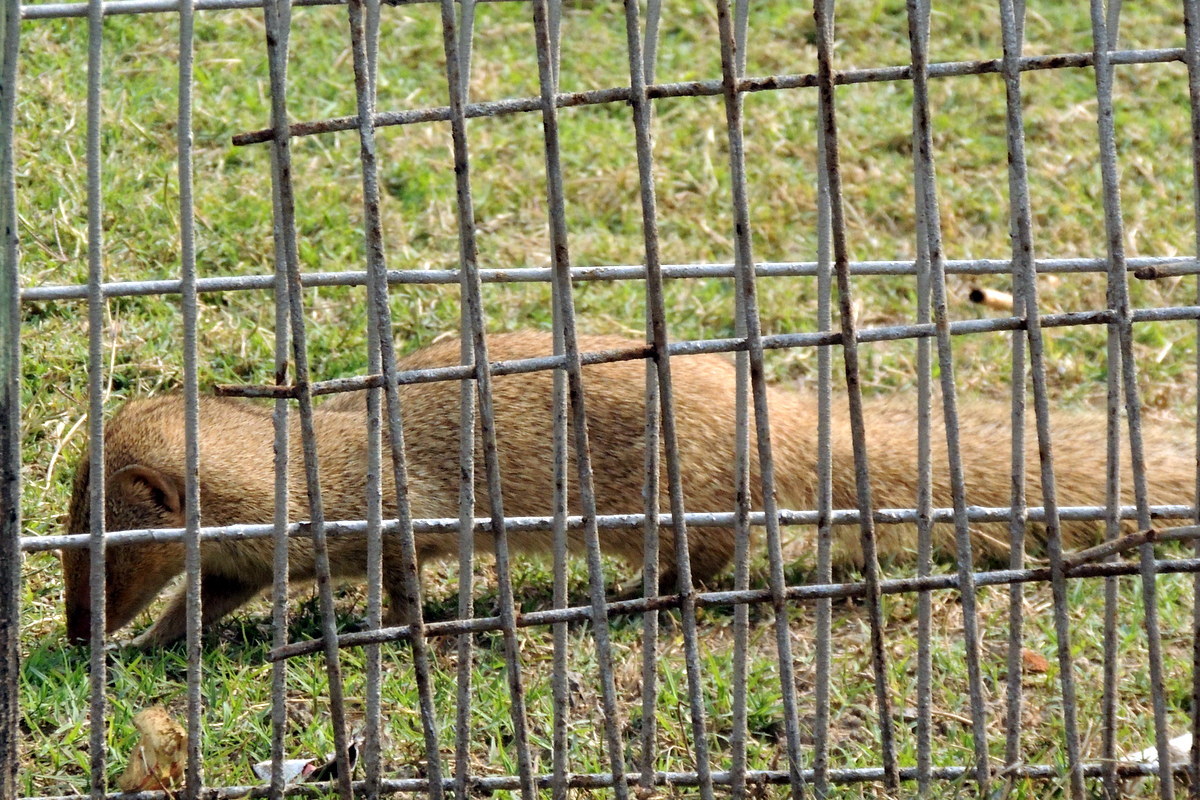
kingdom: Animalia
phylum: Chordata
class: Mammalia
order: Carnivora
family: Herpestidae
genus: Herpestes
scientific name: Herpestes javanicus
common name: Small asian mongoose
